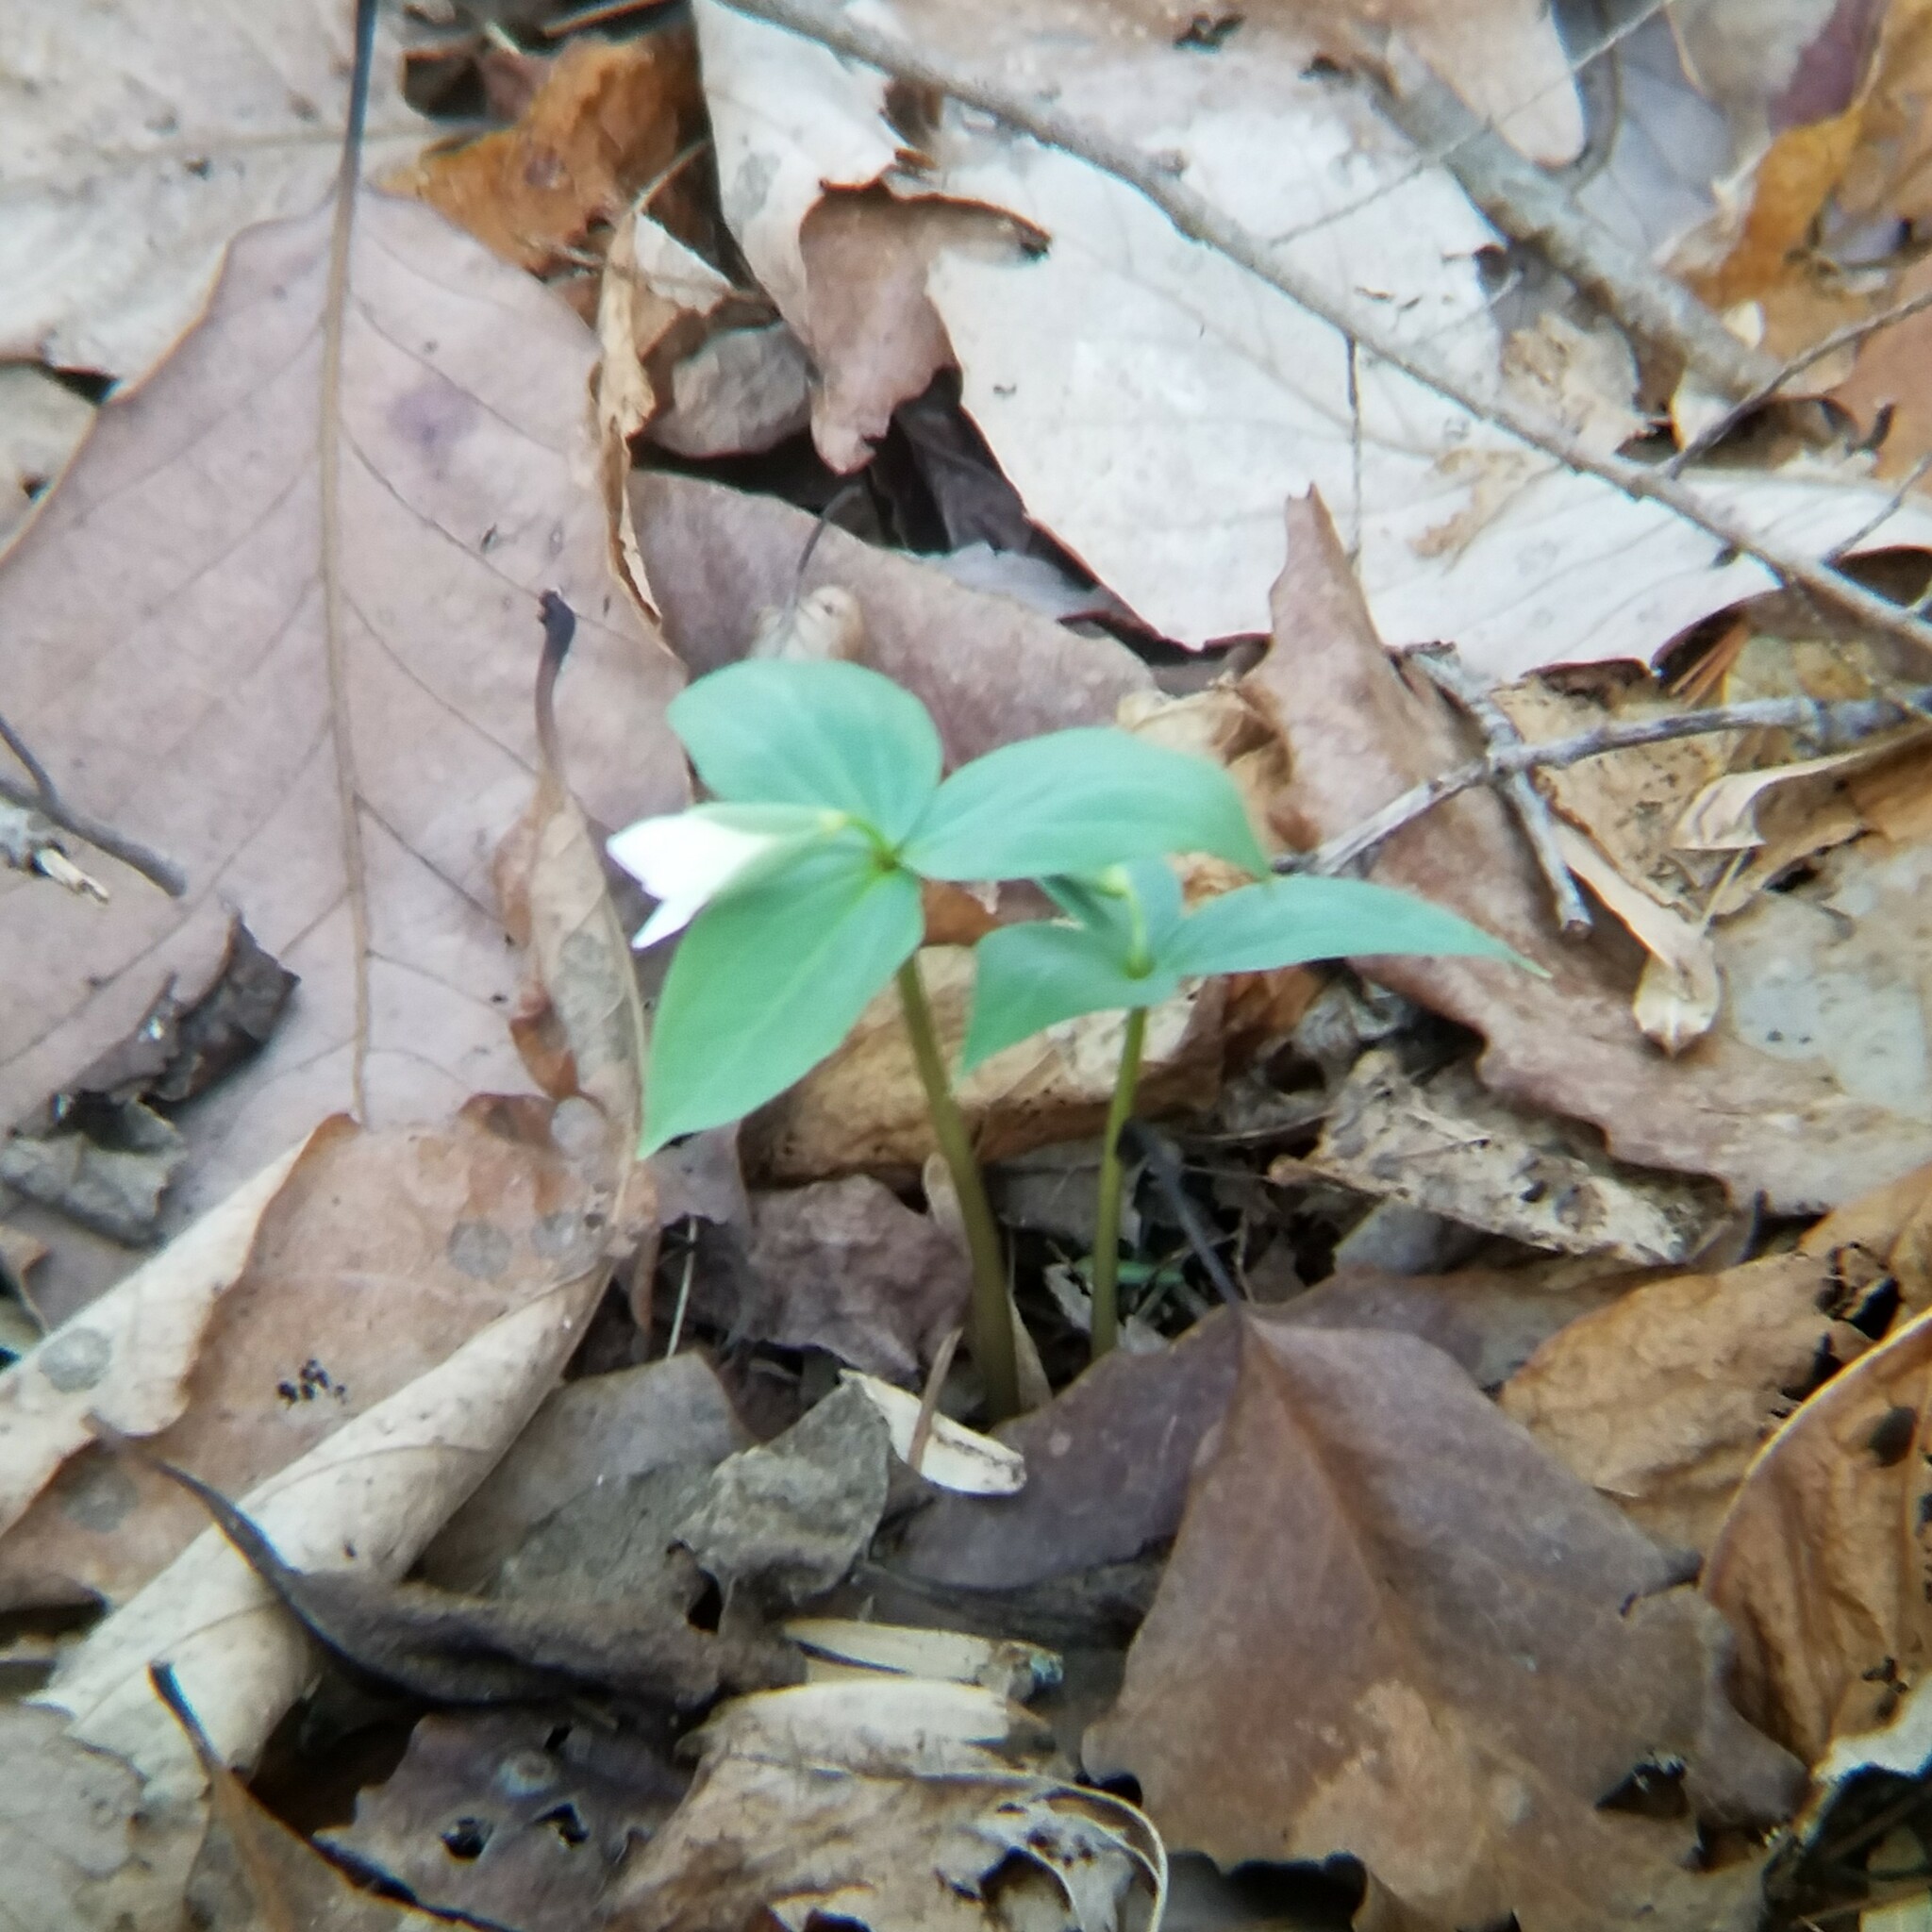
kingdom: Plantae
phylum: Tracheophyta
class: Liliopsida
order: Liliales
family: Melanthiaceae
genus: Trillium
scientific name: Trillium persistens
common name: Persistent trillium
